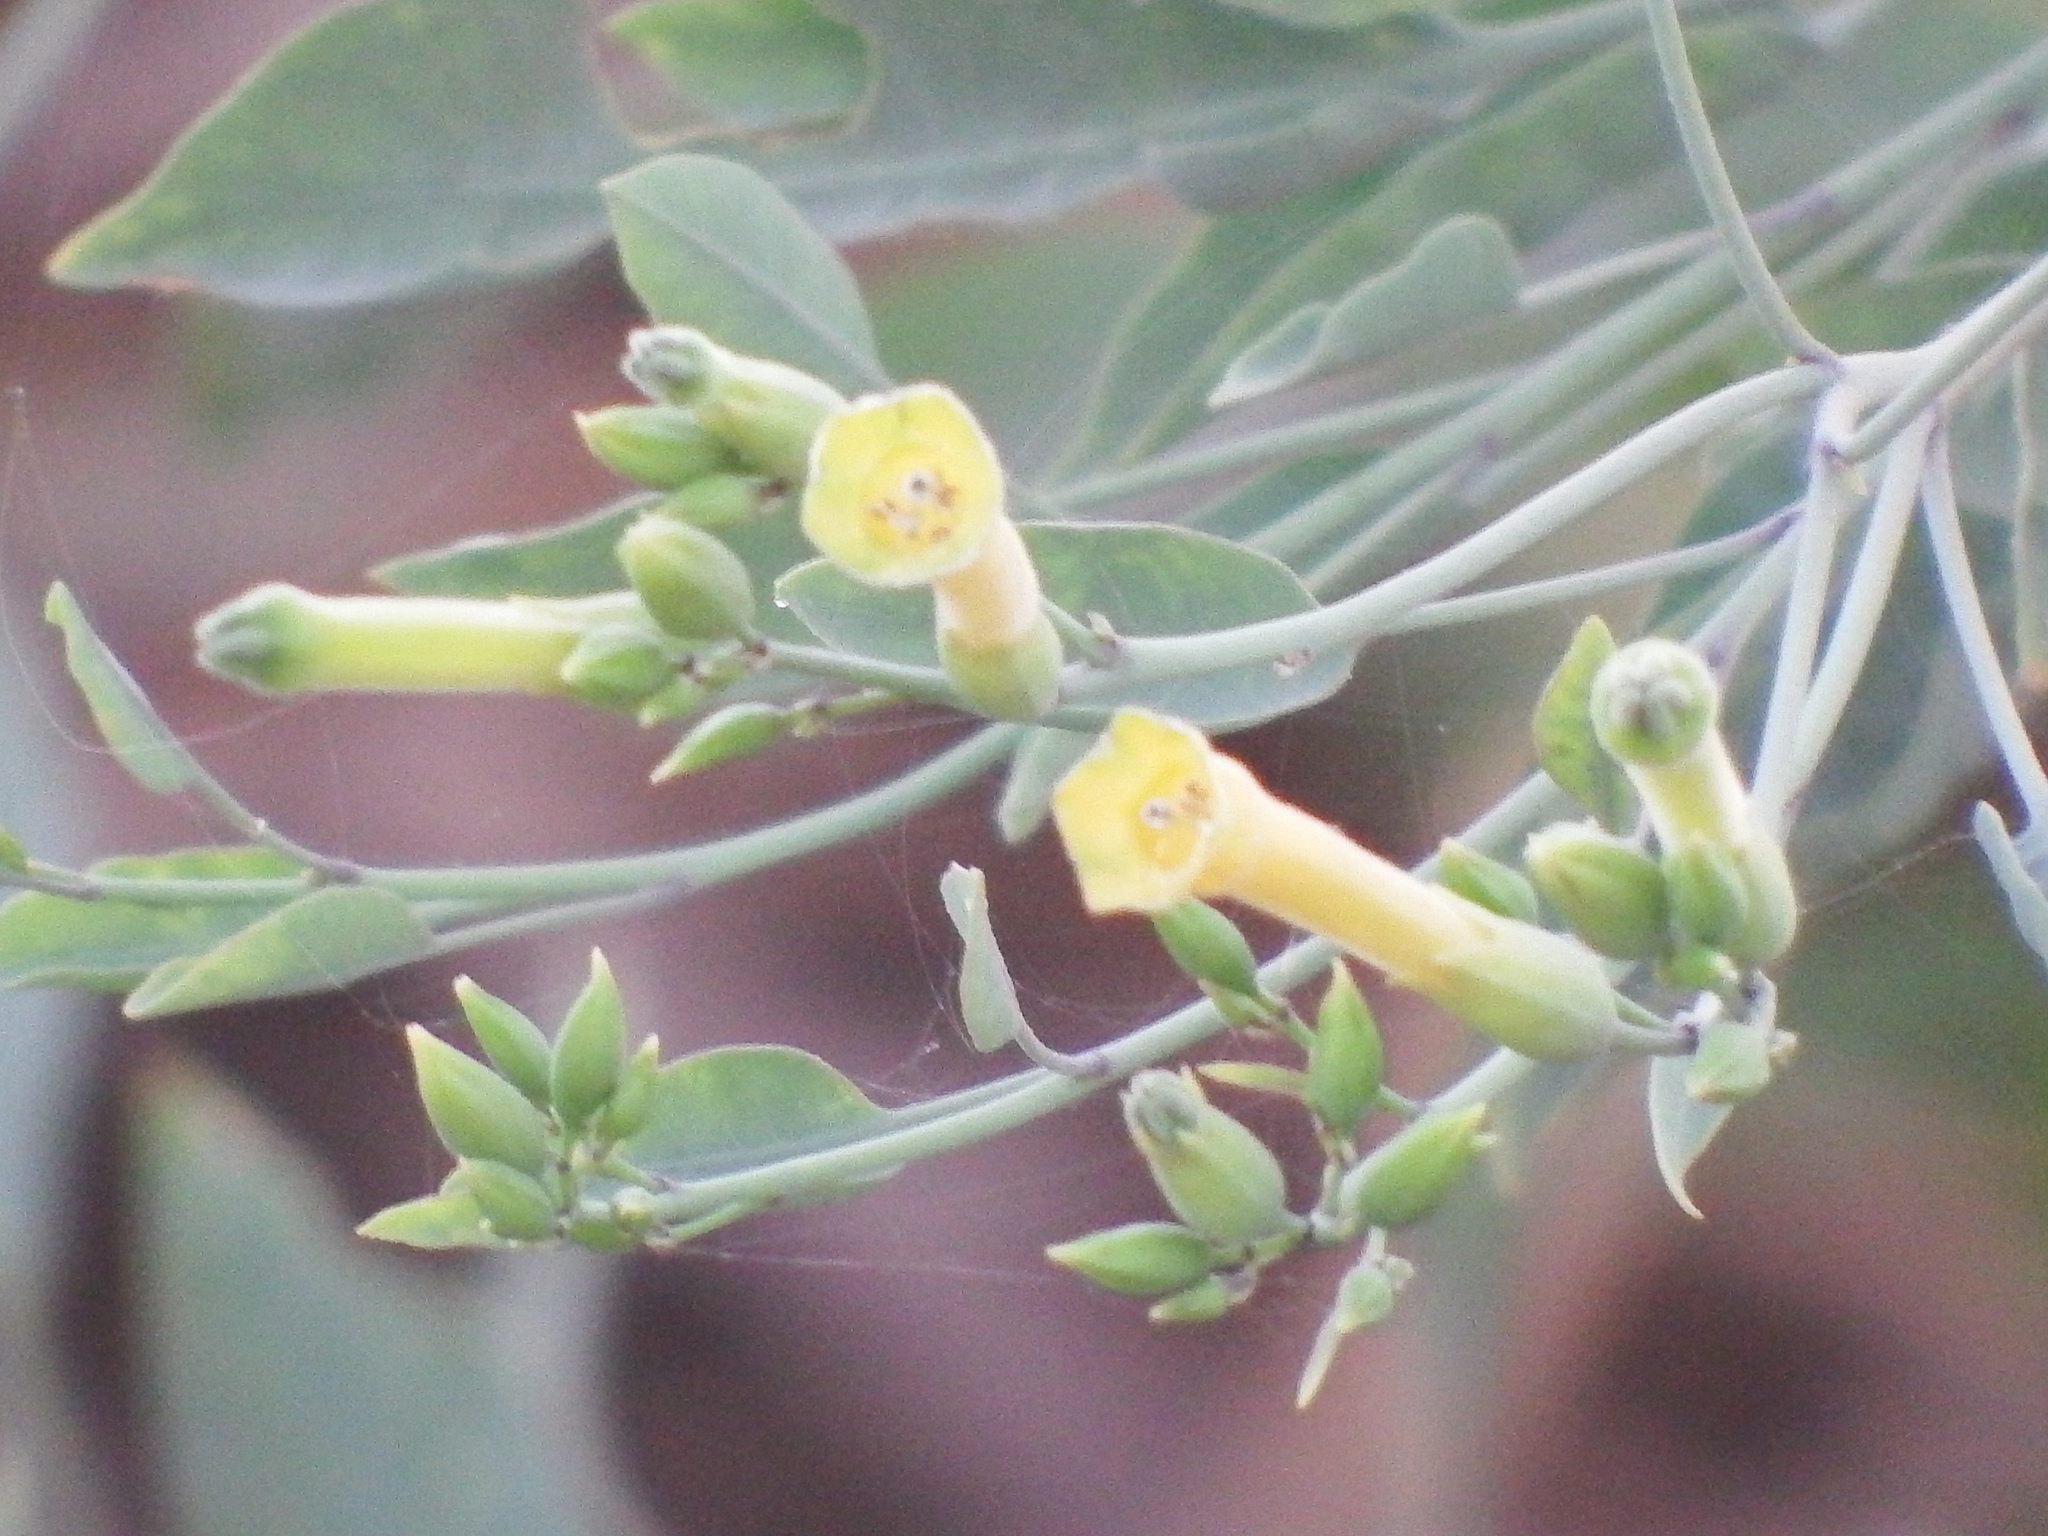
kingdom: Plantae
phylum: Tracheophyta
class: Magnoliopsida
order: Solanales
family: Solanaceae
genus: Nicotiana
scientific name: Nicotiana glauca
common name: Tree tobacco
